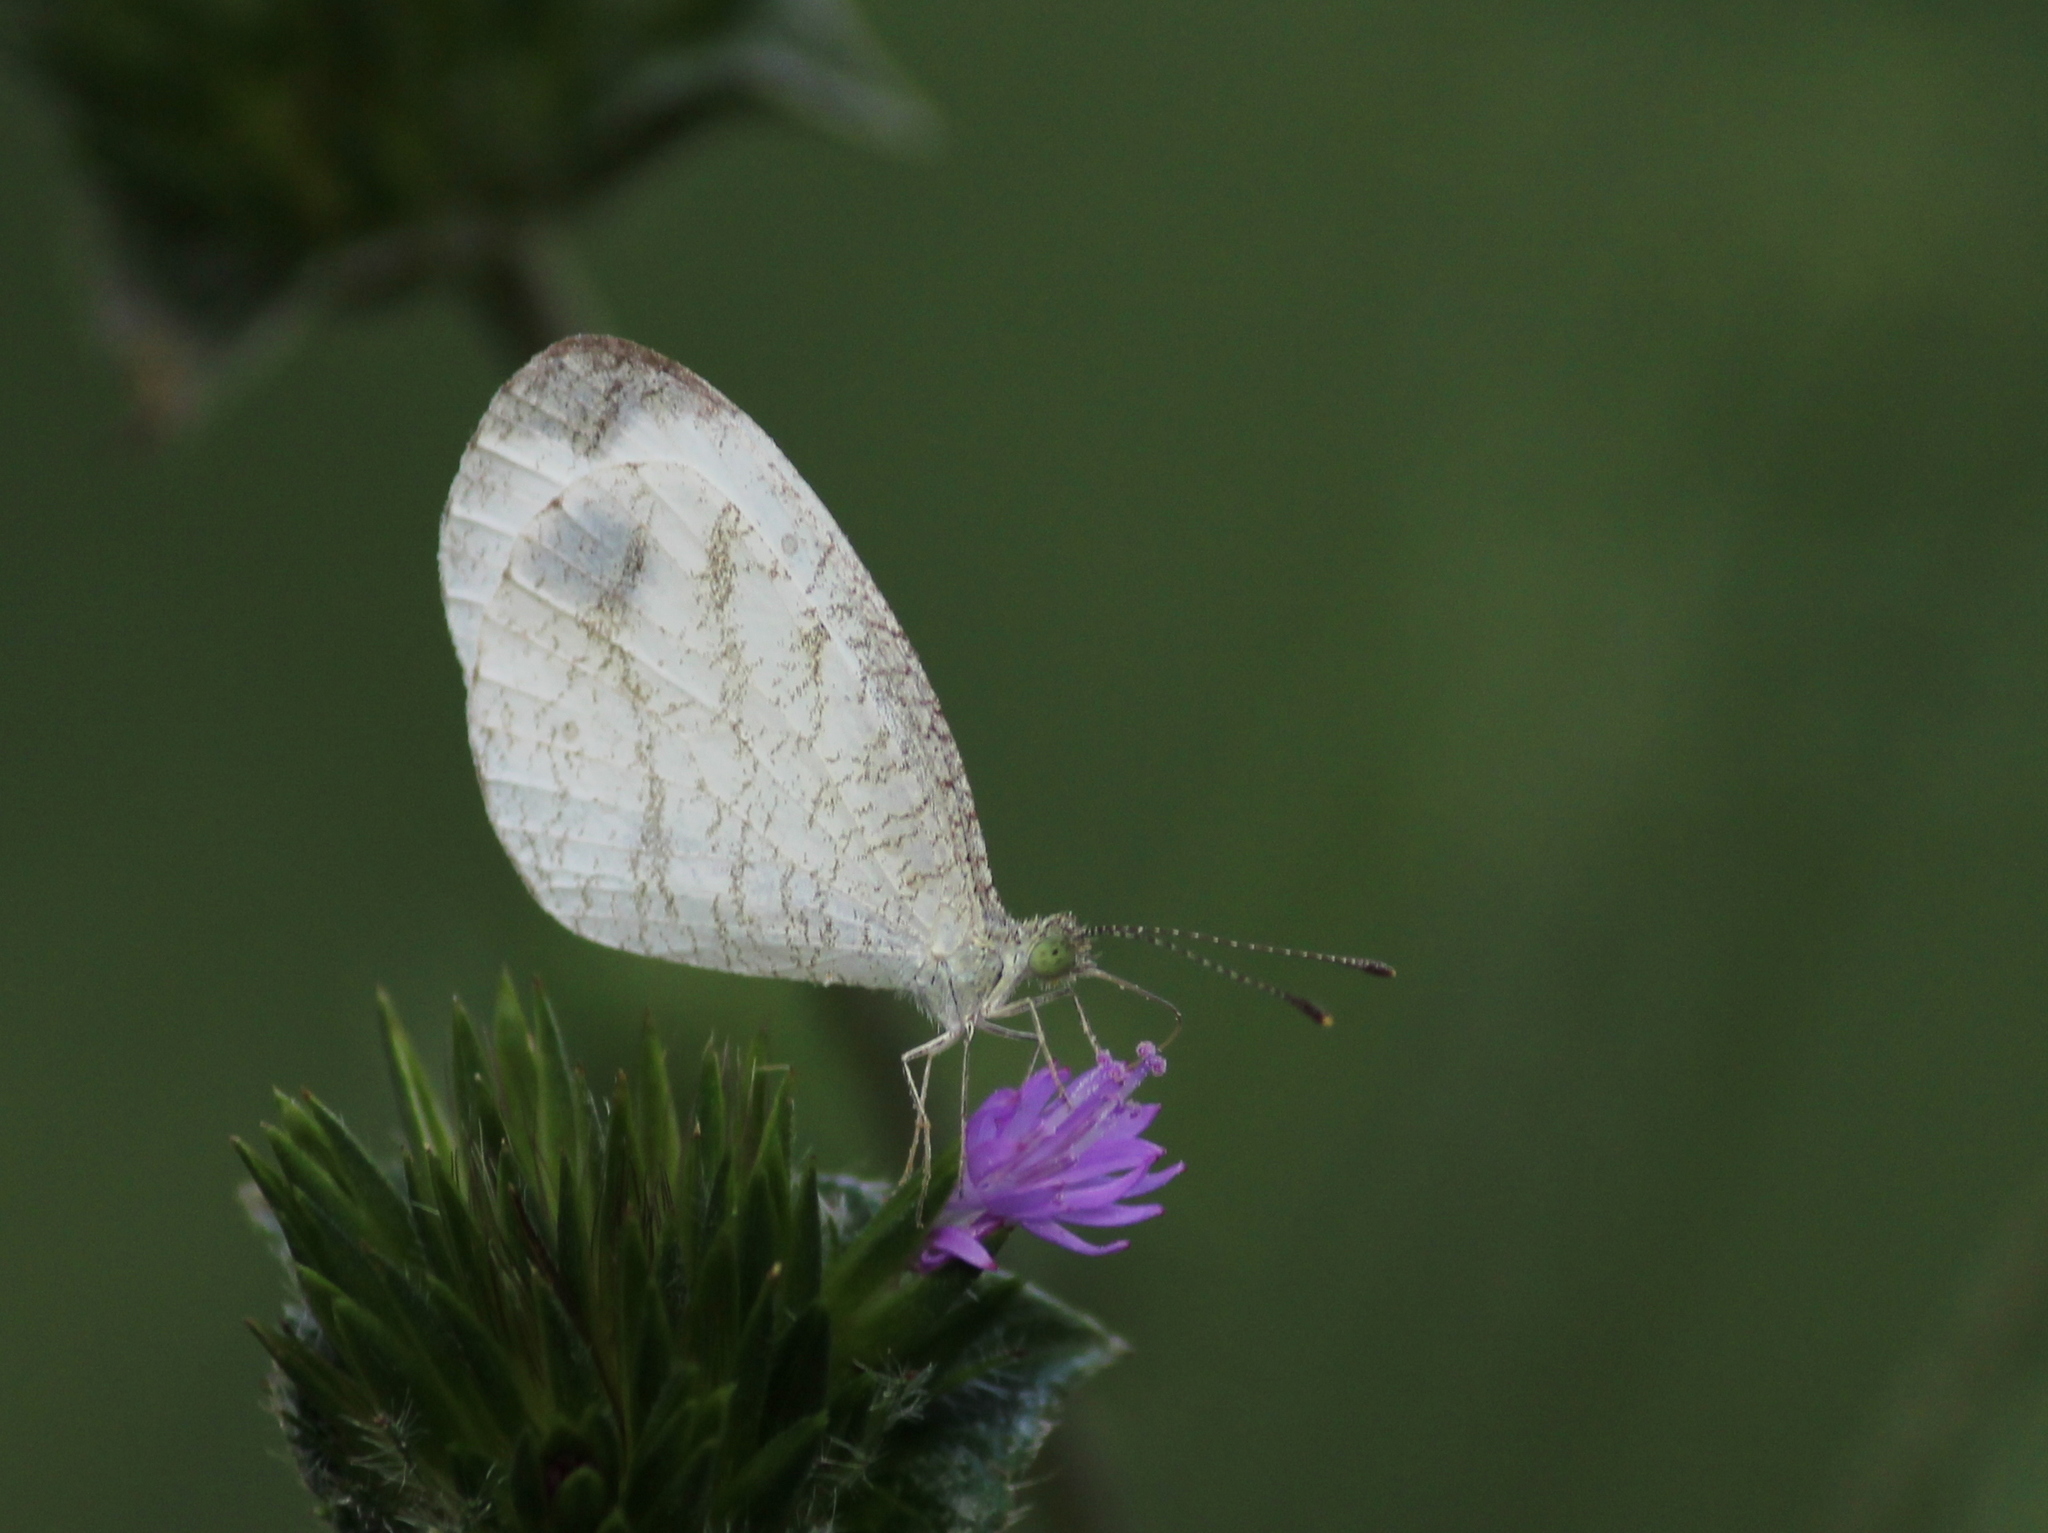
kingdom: Animalia
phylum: Arthropoda
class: Insecta
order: Lepidoptera
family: Pieridae
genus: Leptosia
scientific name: Leptosia nina
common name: Psyche
